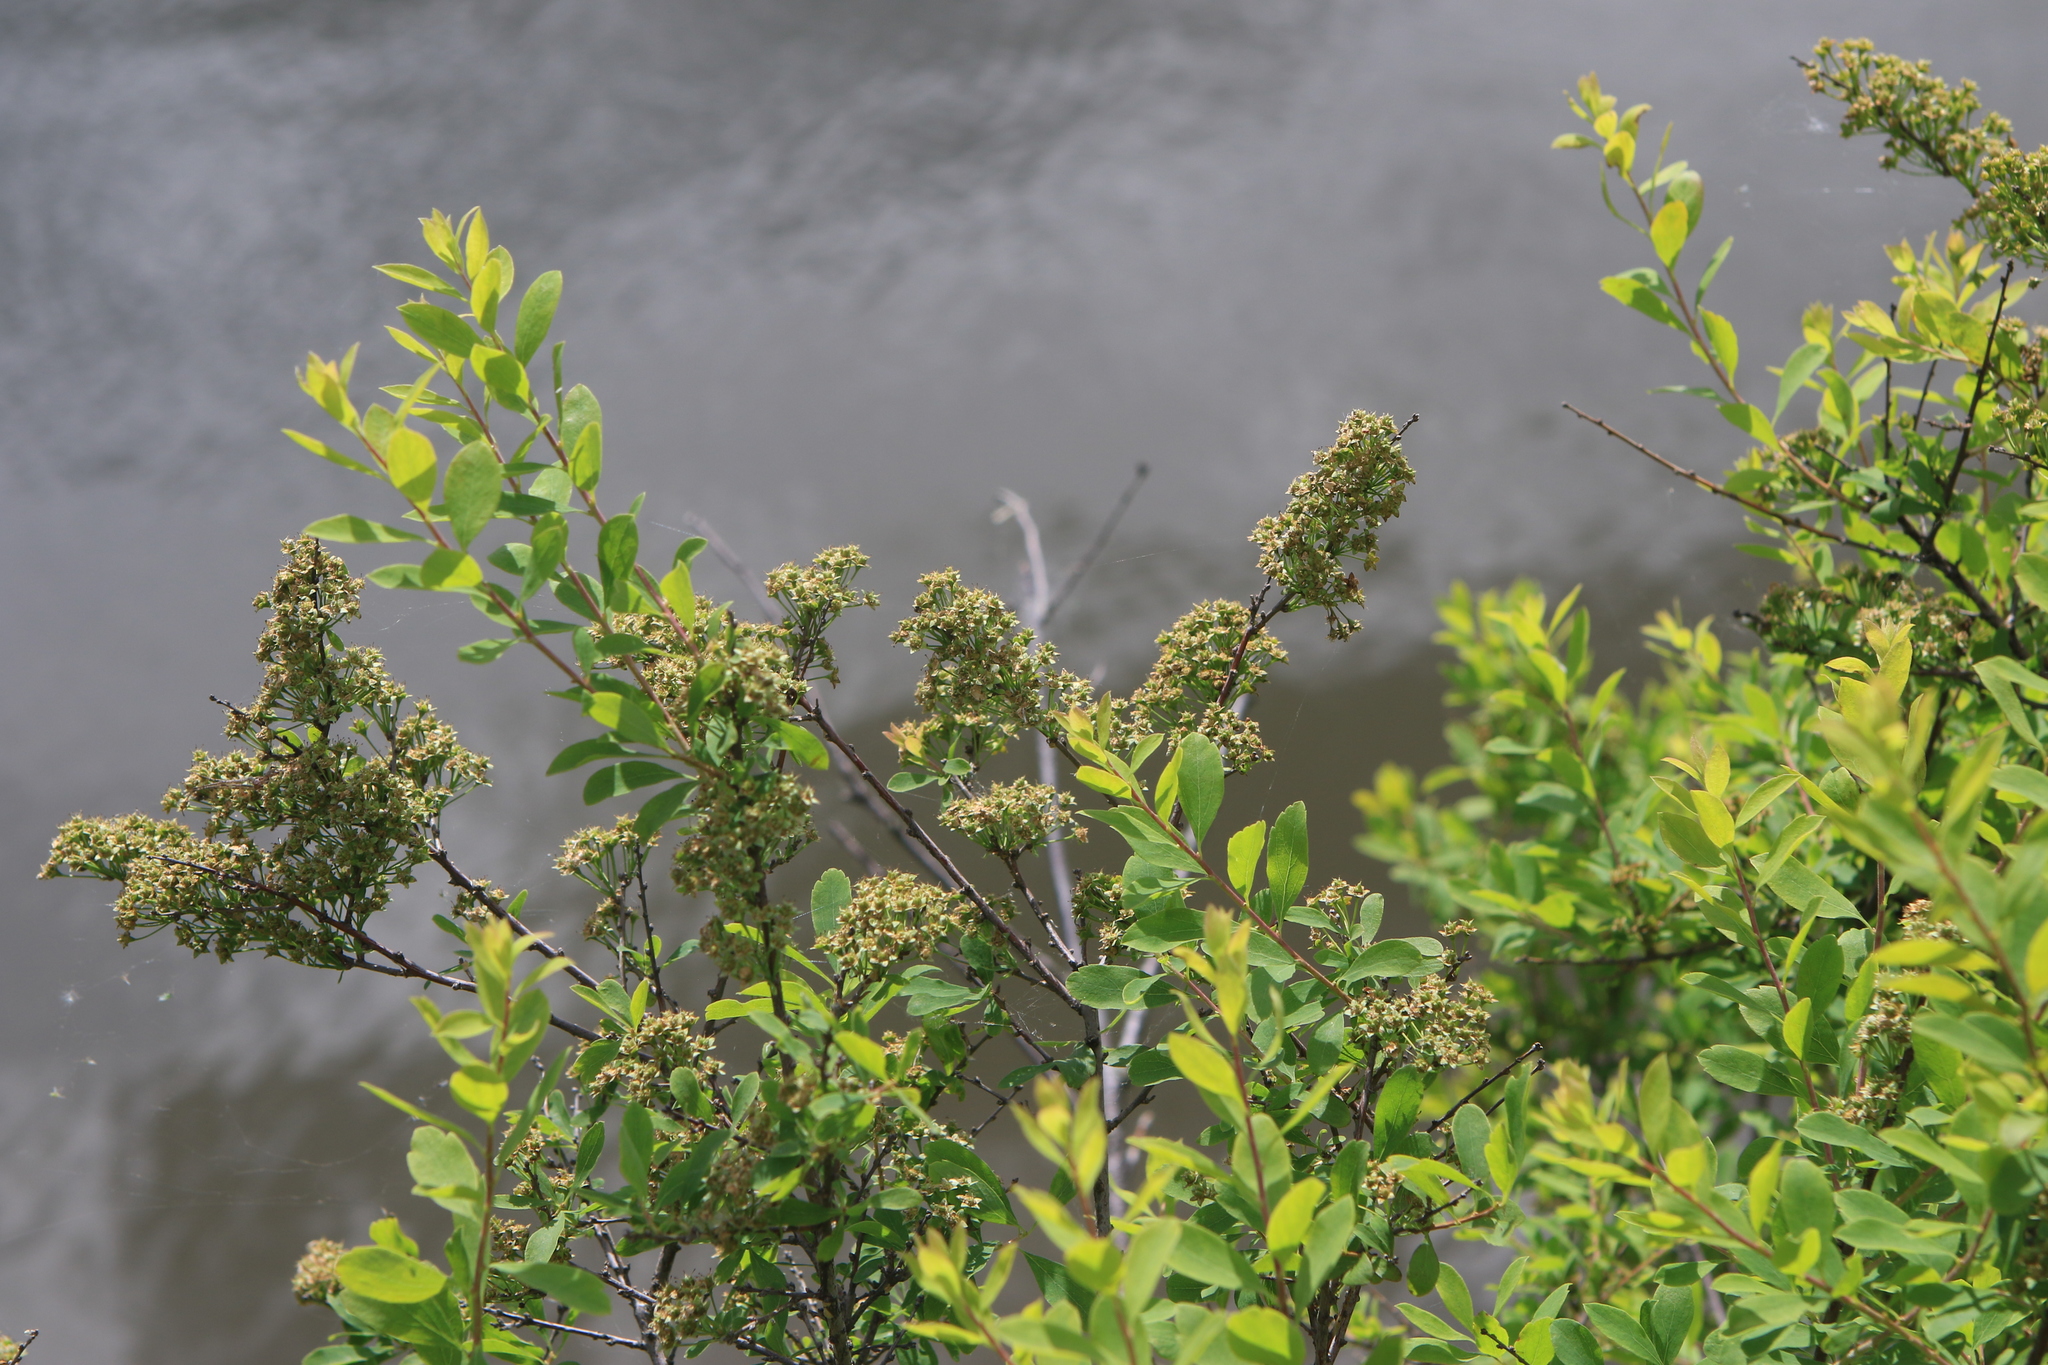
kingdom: Plantae
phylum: Tracheophyta
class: Magnoliopsida
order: Rosales
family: Rosaceae
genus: Spiraea
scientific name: Spiraea media
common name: Russian spiraea
